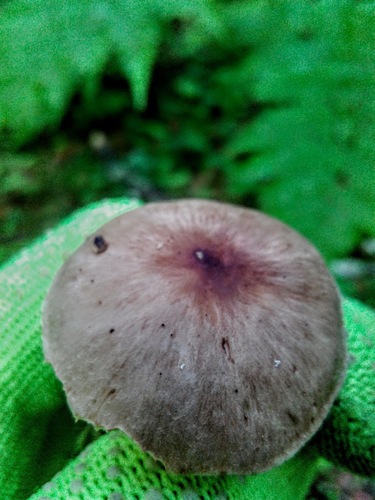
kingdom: Fungi
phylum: Basidiomycota
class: Agaricomycetes
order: Agaricales
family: Omphalotaceae
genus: Rhodocollybia
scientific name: Rhodocollybia
